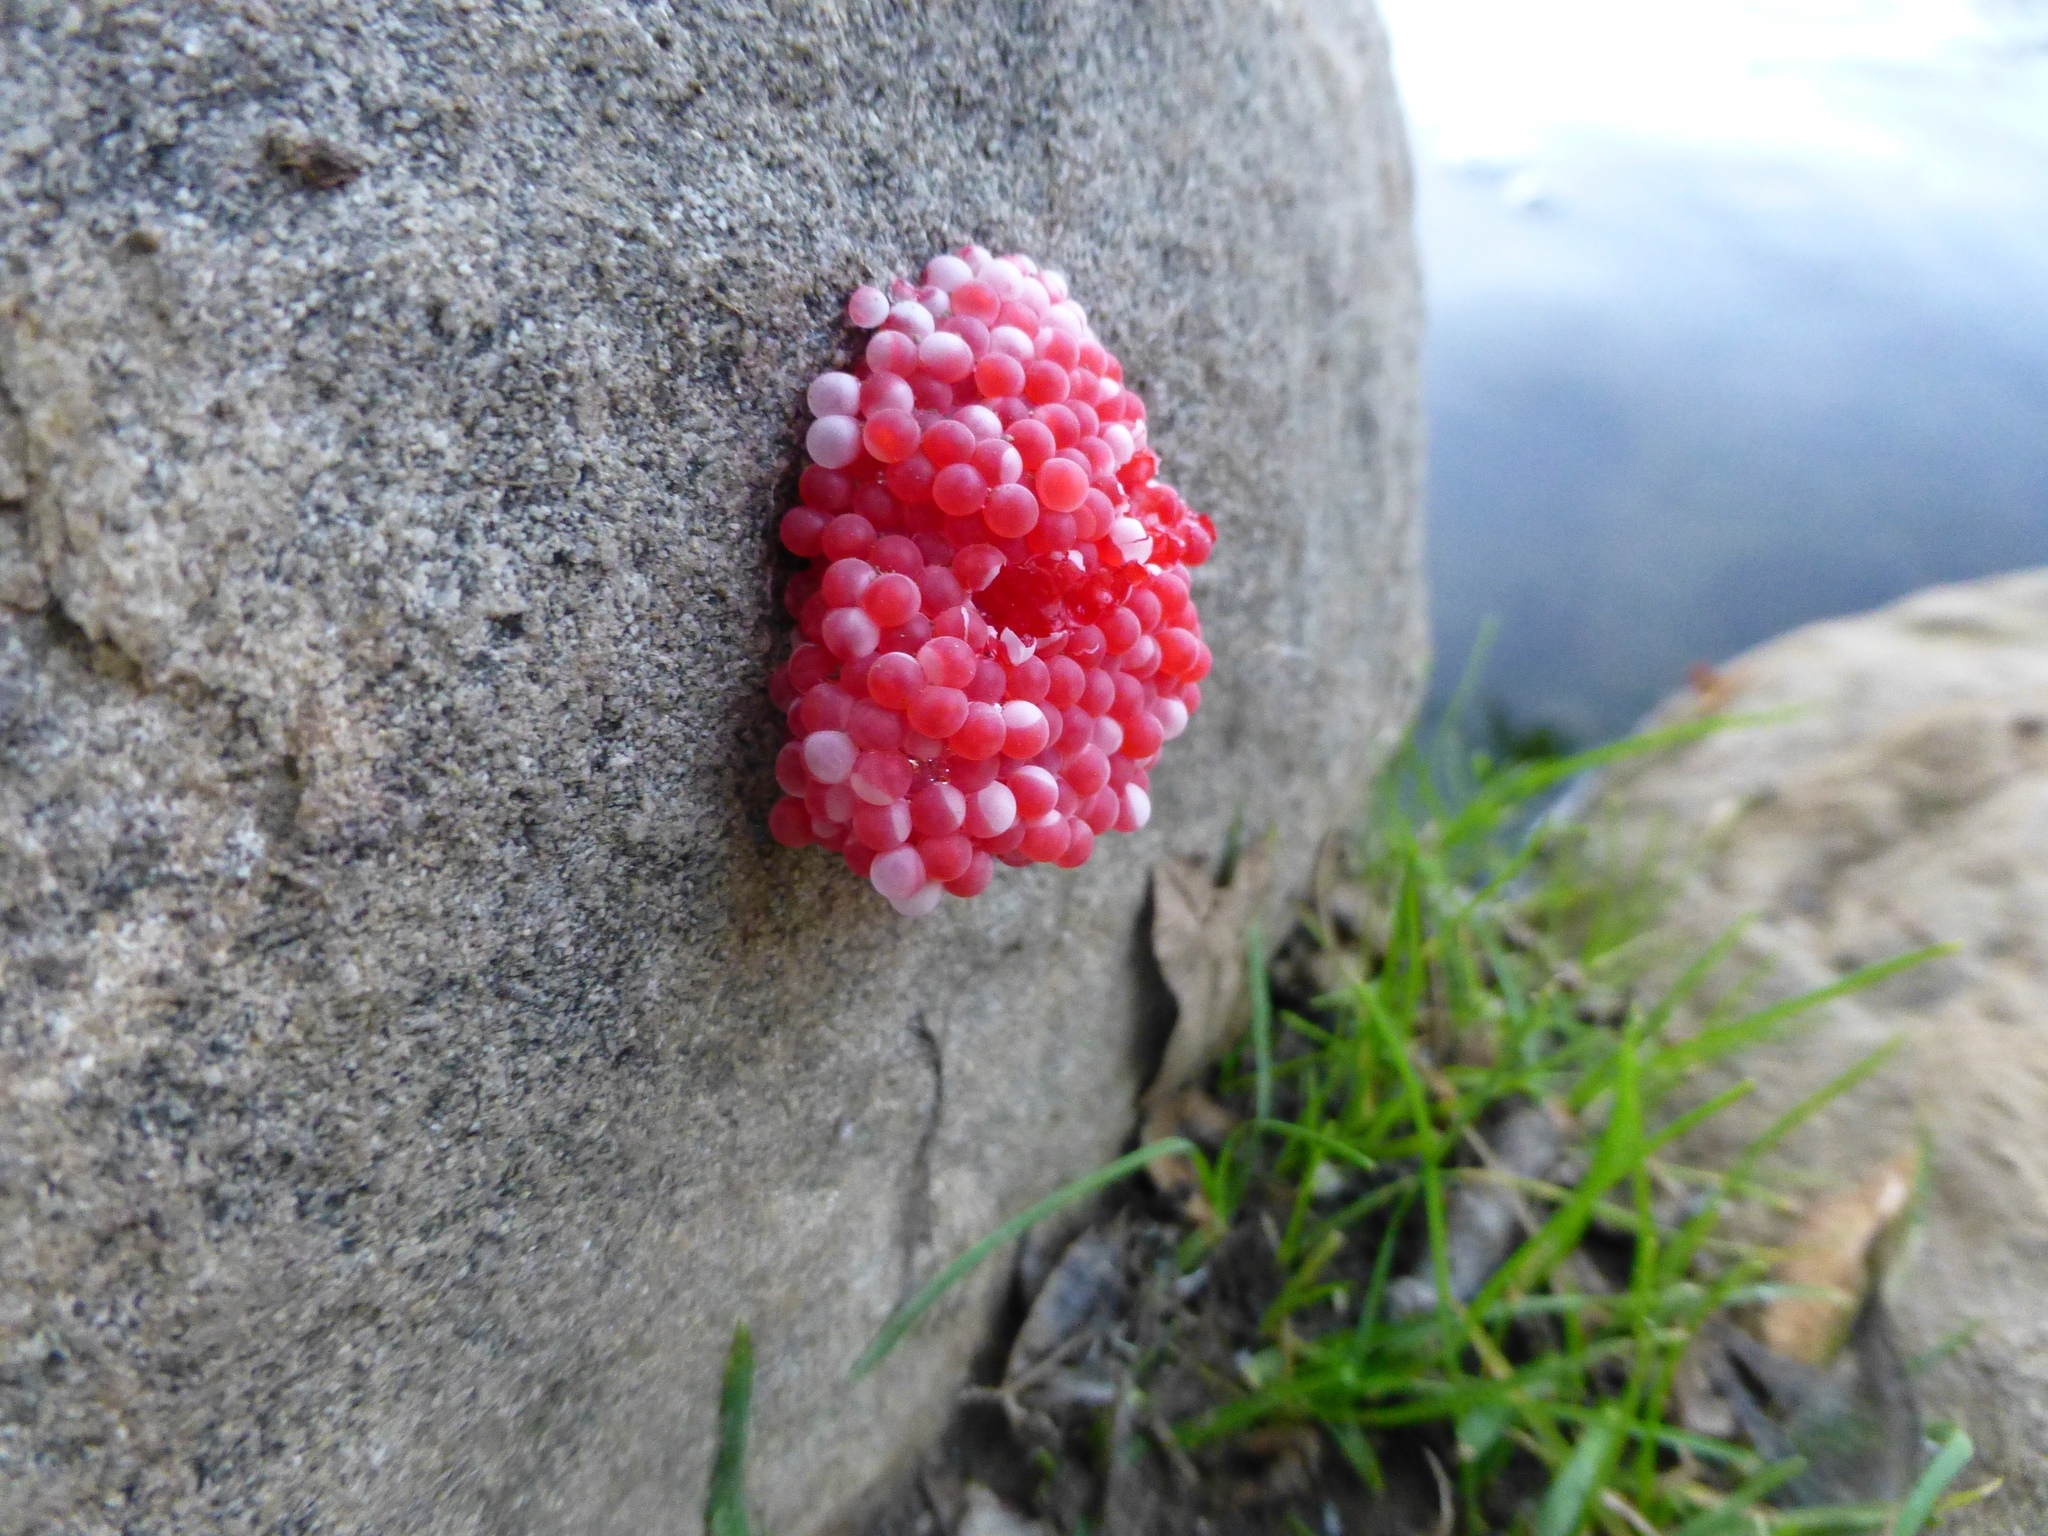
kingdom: Animalia
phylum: Mollusca
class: Gastropoda
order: Architaenioglossa
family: Ampullariidae
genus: Pomacea
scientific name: Pomacea canaliculata
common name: Channeled applesnail
